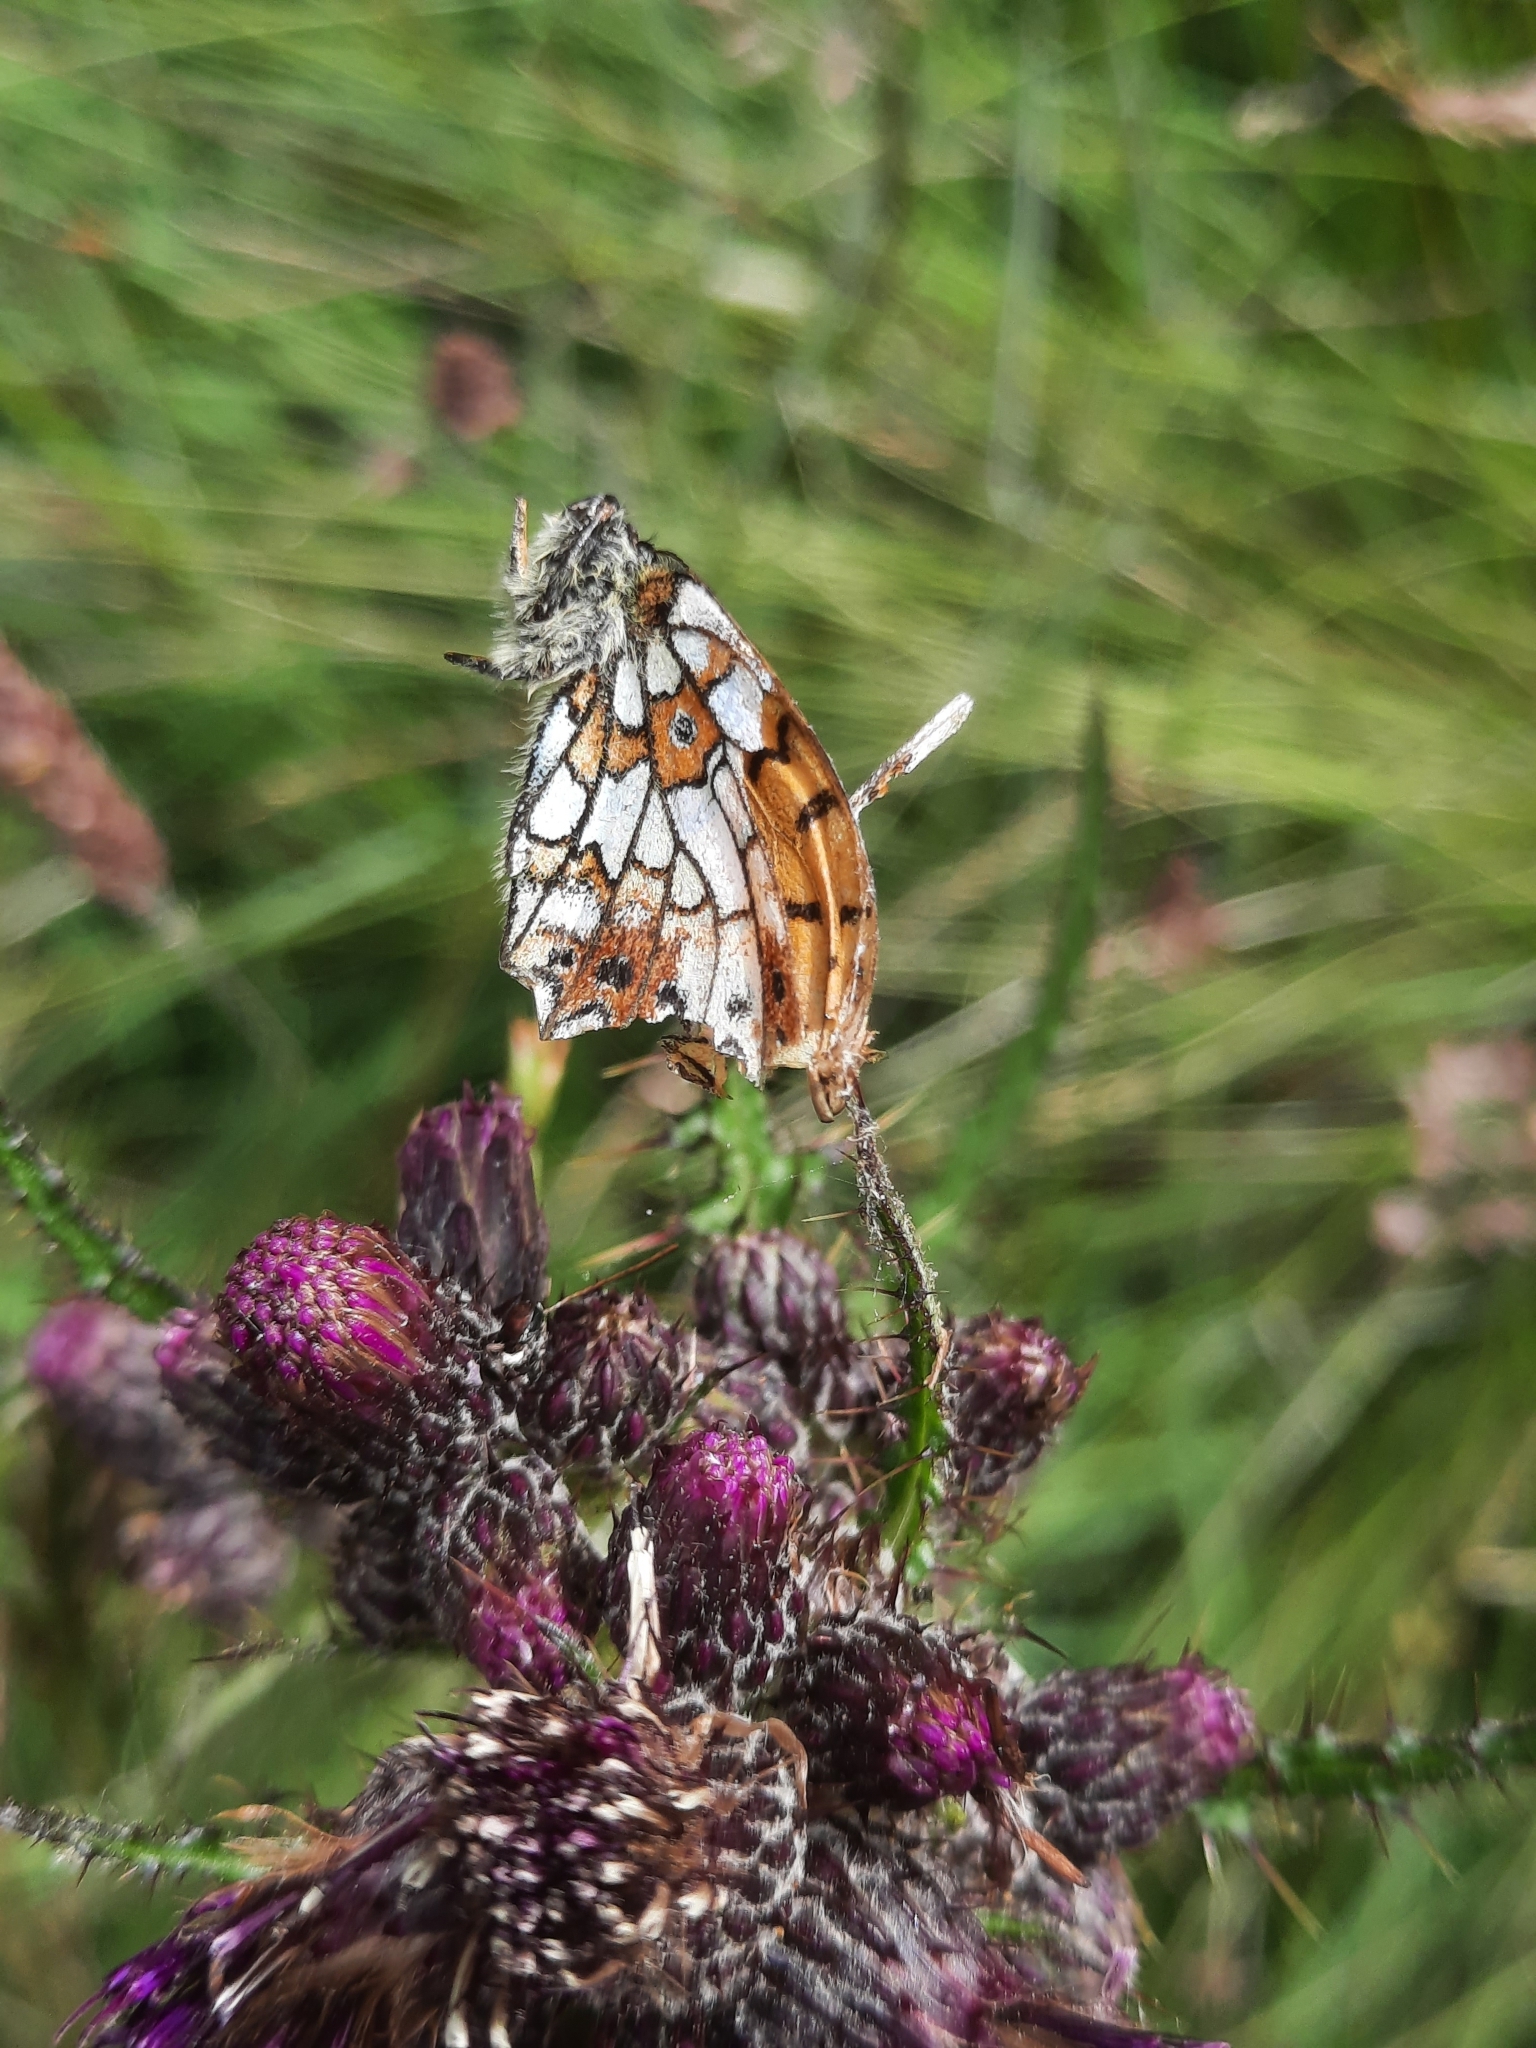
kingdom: Animalia
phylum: Arthropoda
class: Insecta
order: Lepidoptera
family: Nymphalidae
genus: Boloria
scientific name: Boloria selene
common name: Small pearl-bordered fritillary
